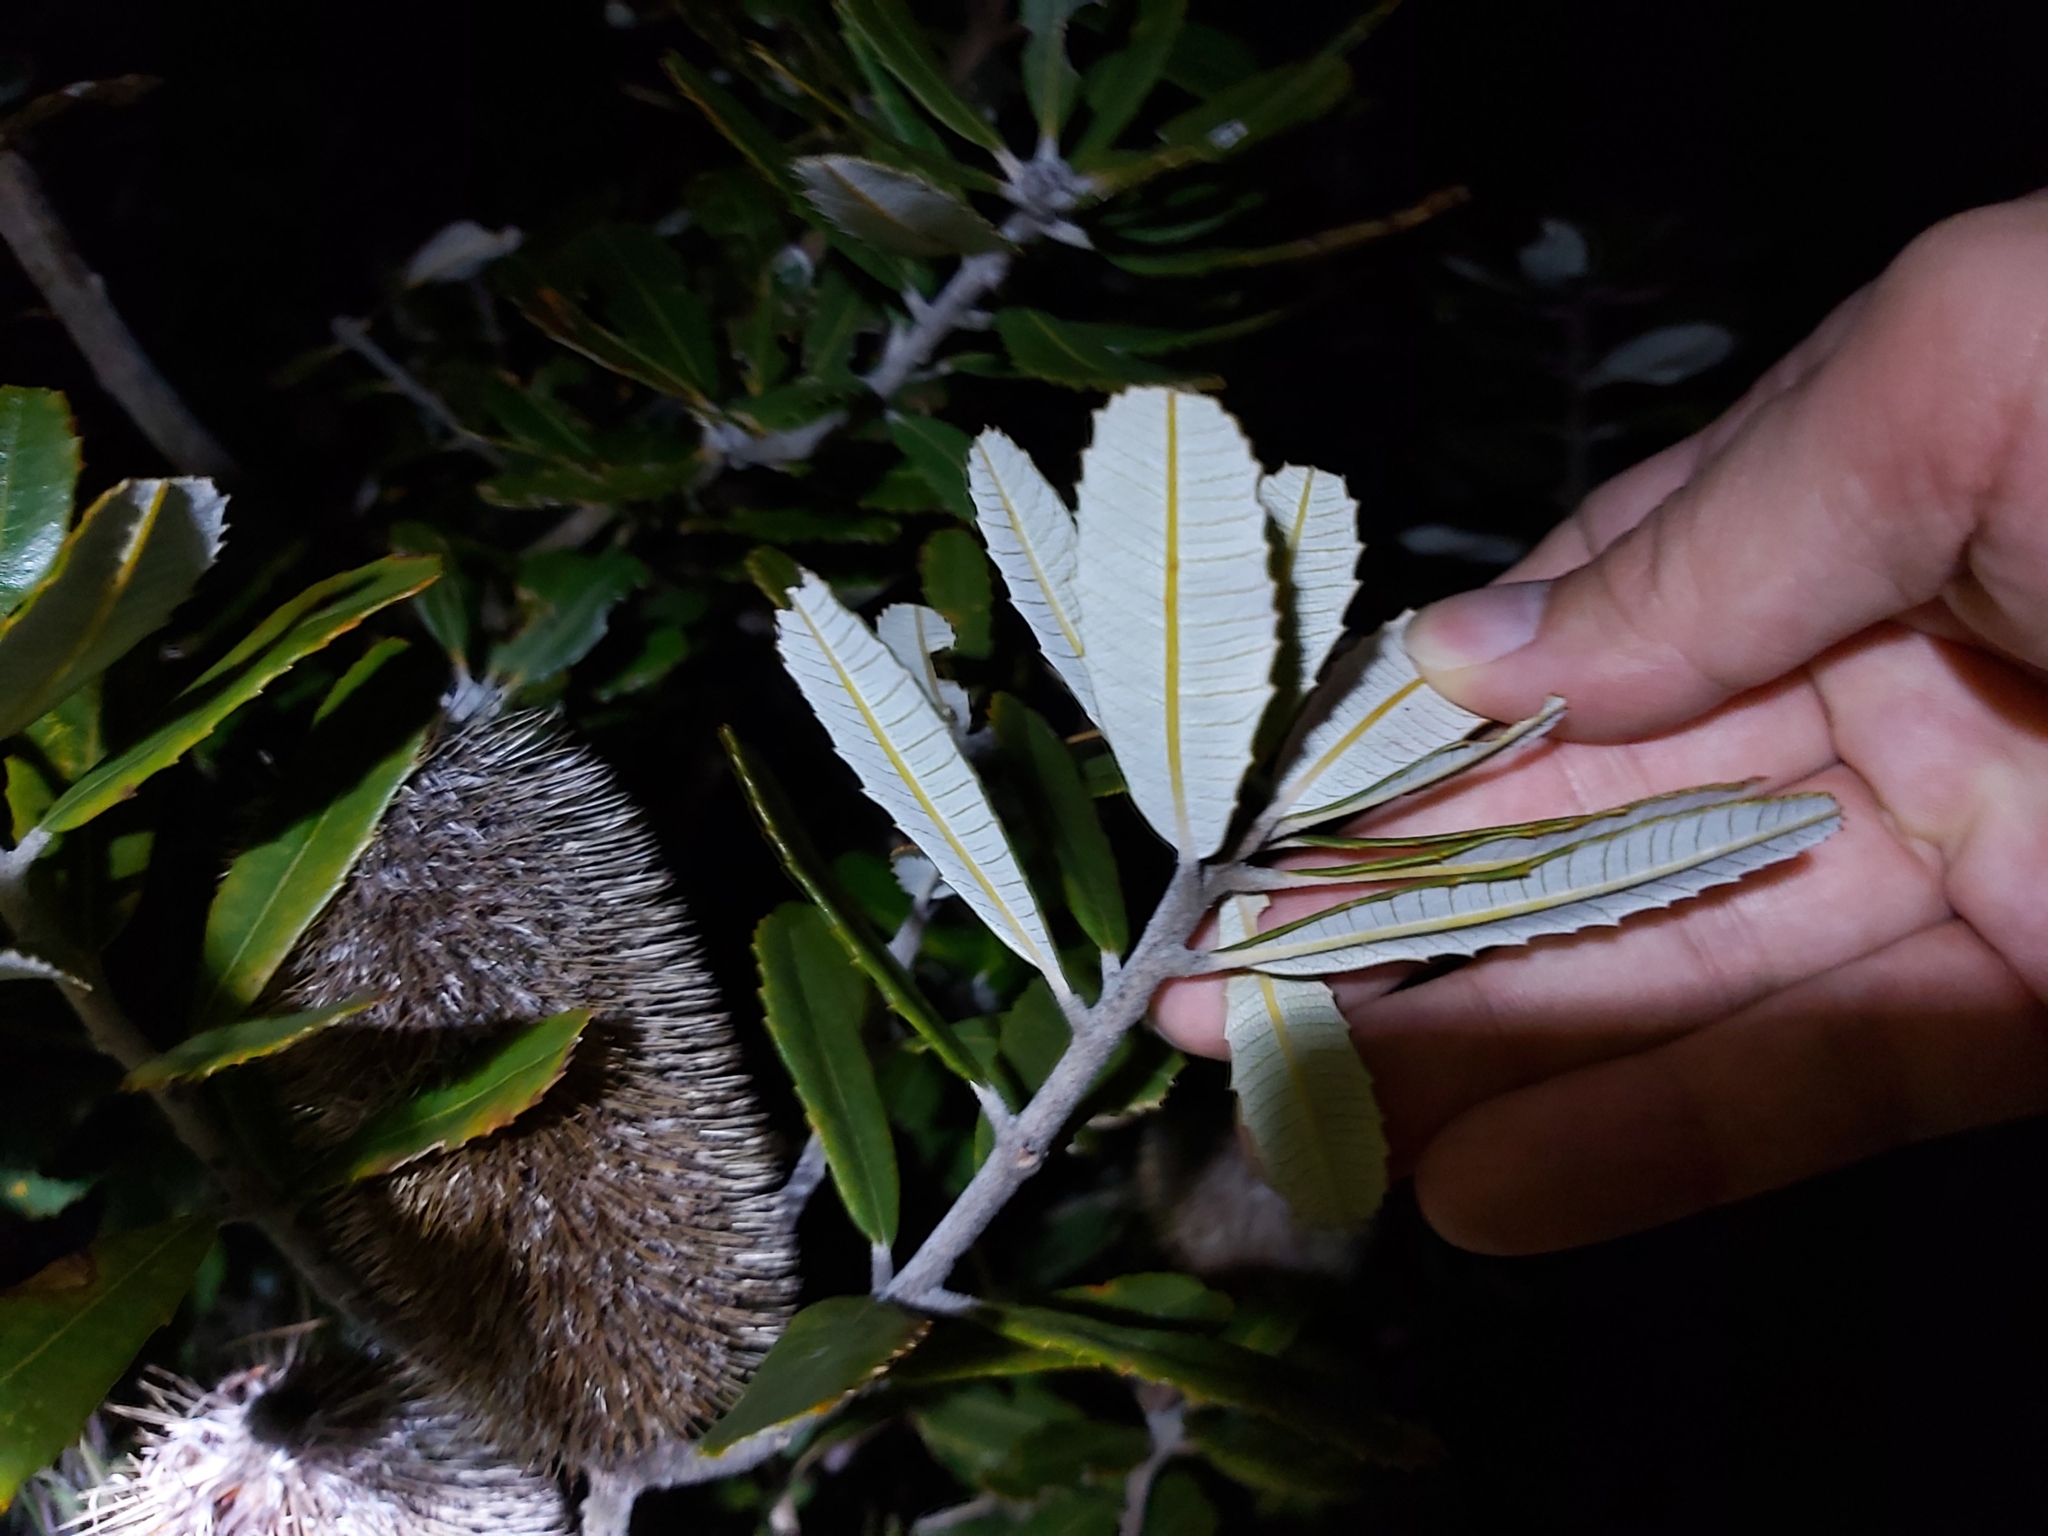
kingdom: Plantae
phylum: Tracheophyta
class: Magnoliopsida
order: Proteales
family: Proteaceae
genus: Banksia
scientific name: Banksia oblongifolia
